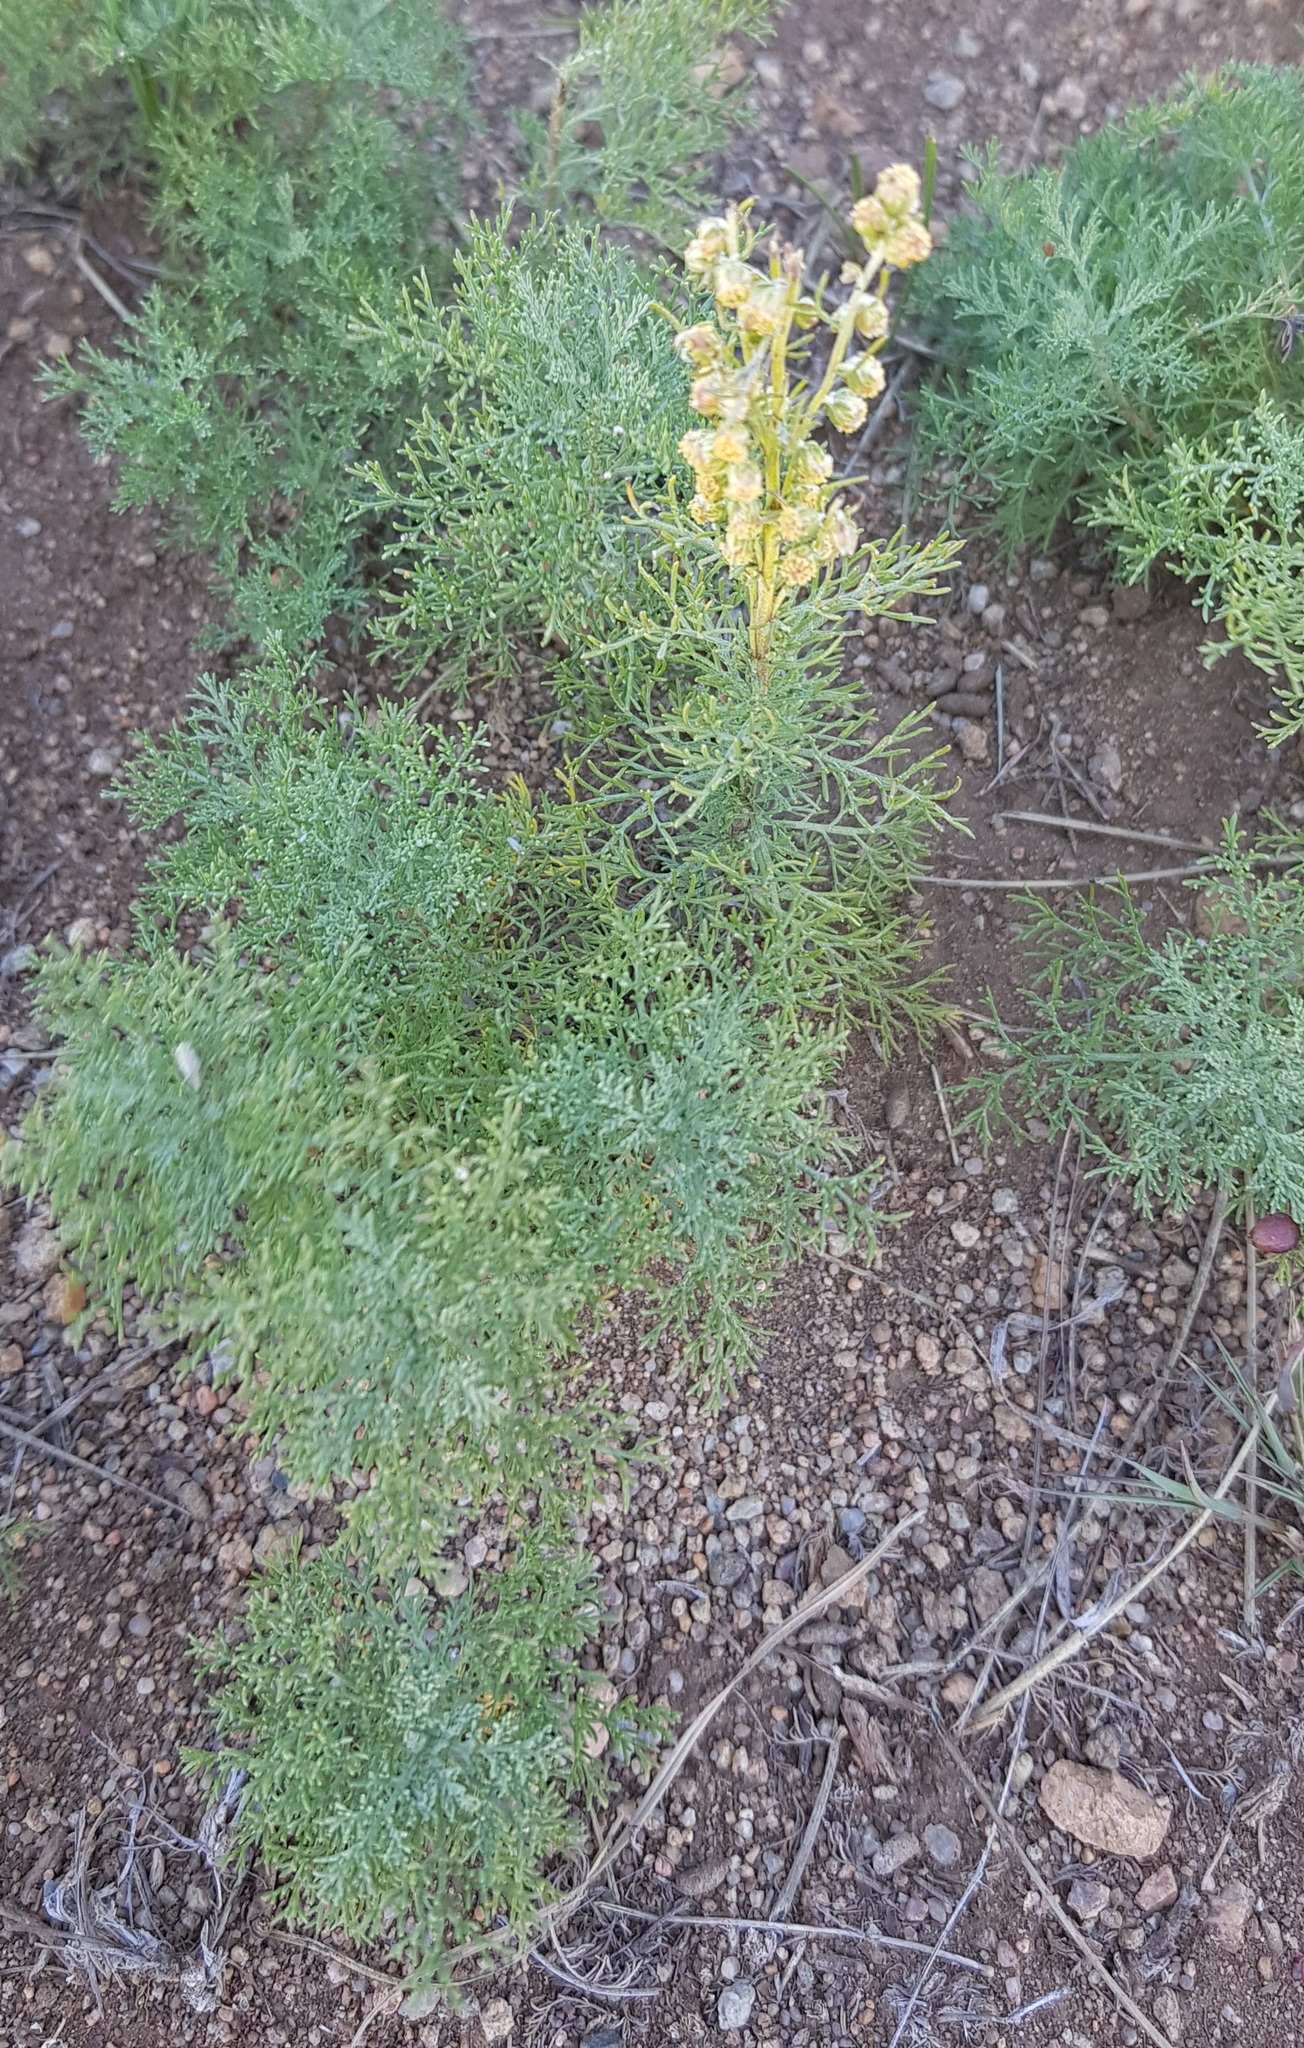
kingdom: Plantae
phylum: Tracheophyta
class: Magnoliopsida
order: Asterales
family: Asteraceae
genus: Artemisia
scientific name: Artemisia adamsii
